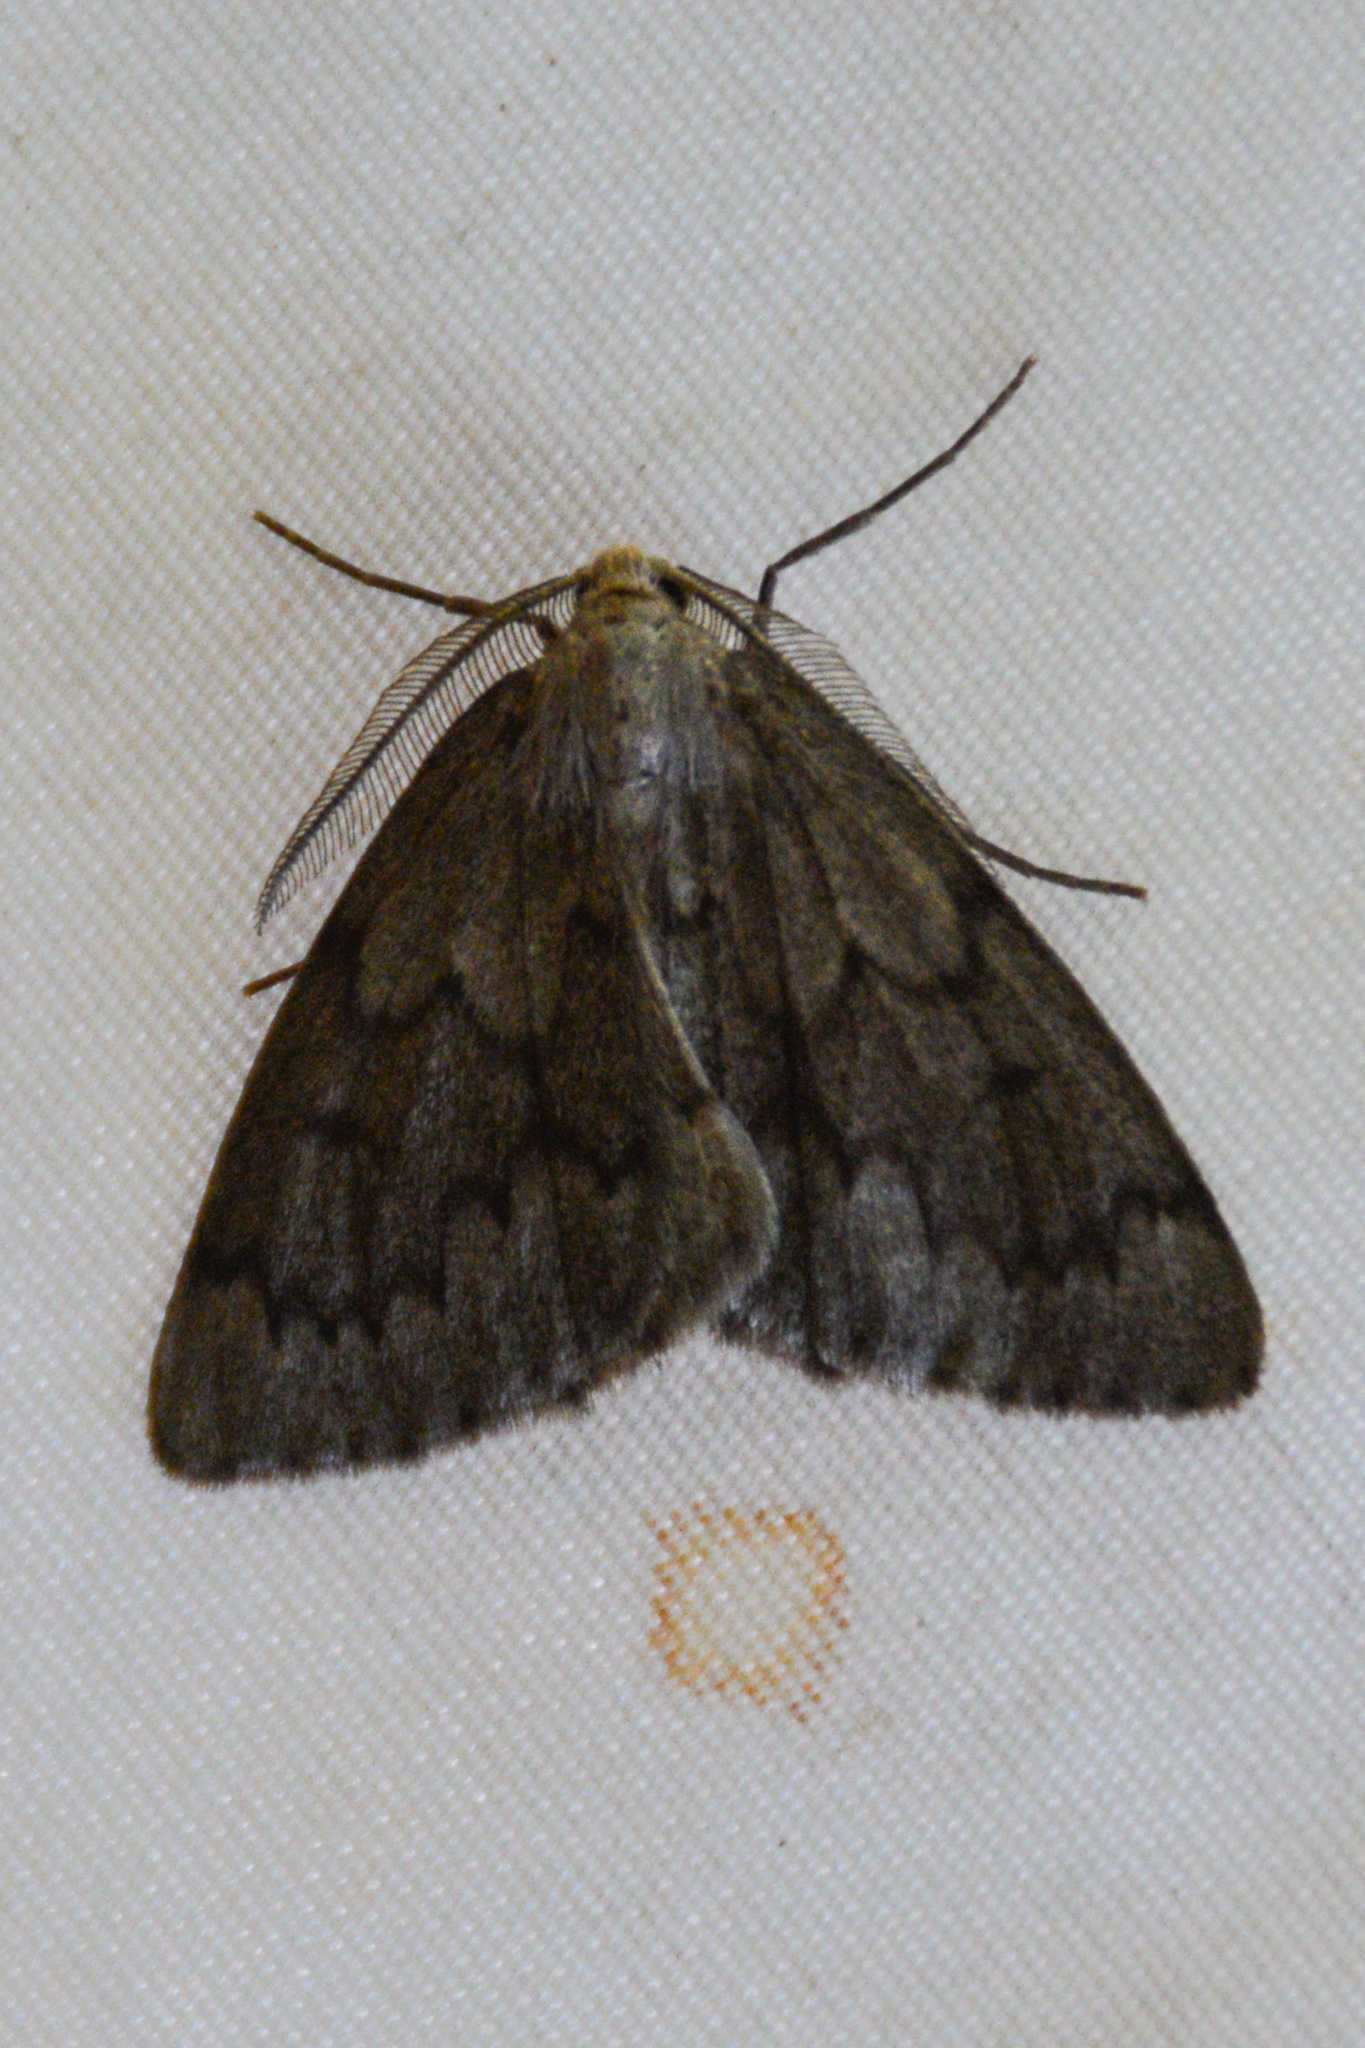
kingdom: Animalia
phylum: Arthropoda
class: Insecta
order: Lepidoptera
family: Geometridae
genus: Nepytia
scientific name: Nepytia semiclusaria
